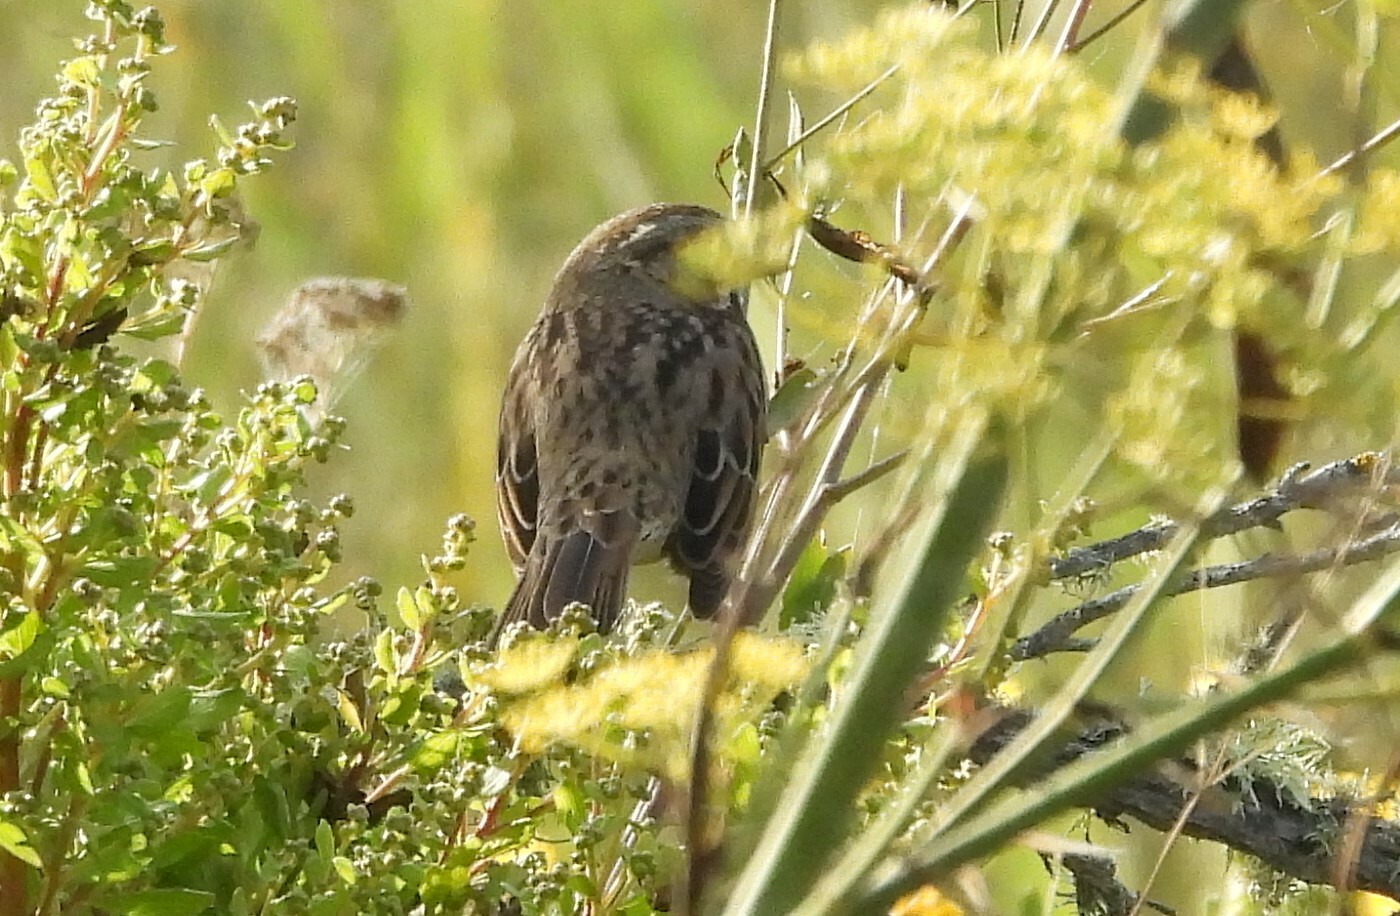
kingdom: Animalia
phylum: Chordata
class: Aves
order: Passeriformes
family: Passerellidae
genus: Melospiza
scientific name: Melospiza melodia
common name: Song sparrow
